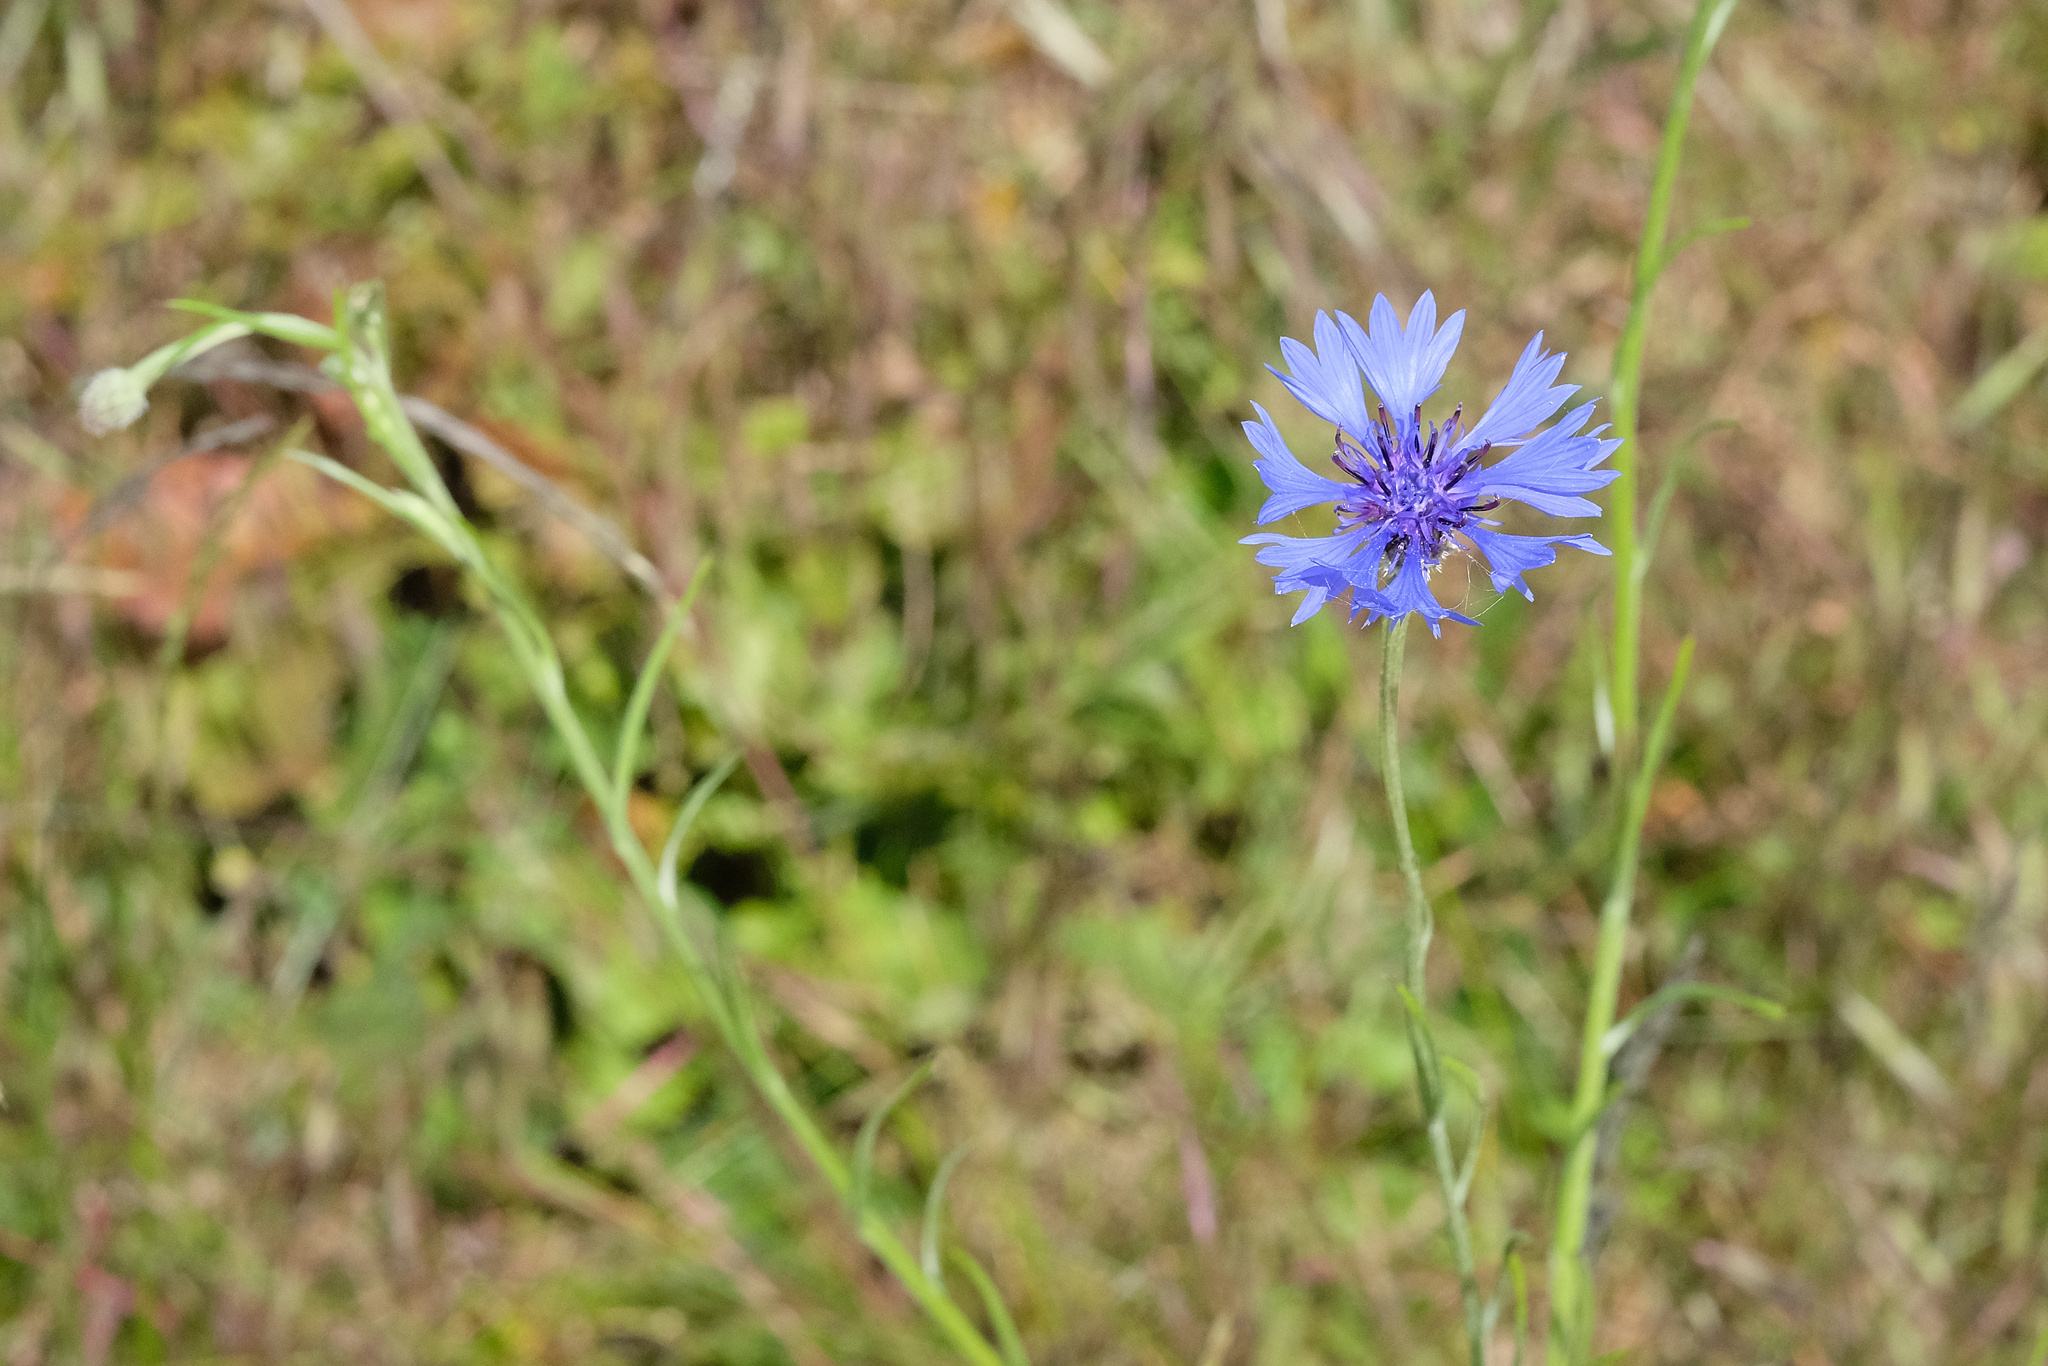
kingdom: Plantae
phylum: Tracheophyta
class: Magnoliopsida
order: Asterales
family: Asteraceae
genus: Centaurea
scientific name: Centaurea cyanus
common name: Cornflower
